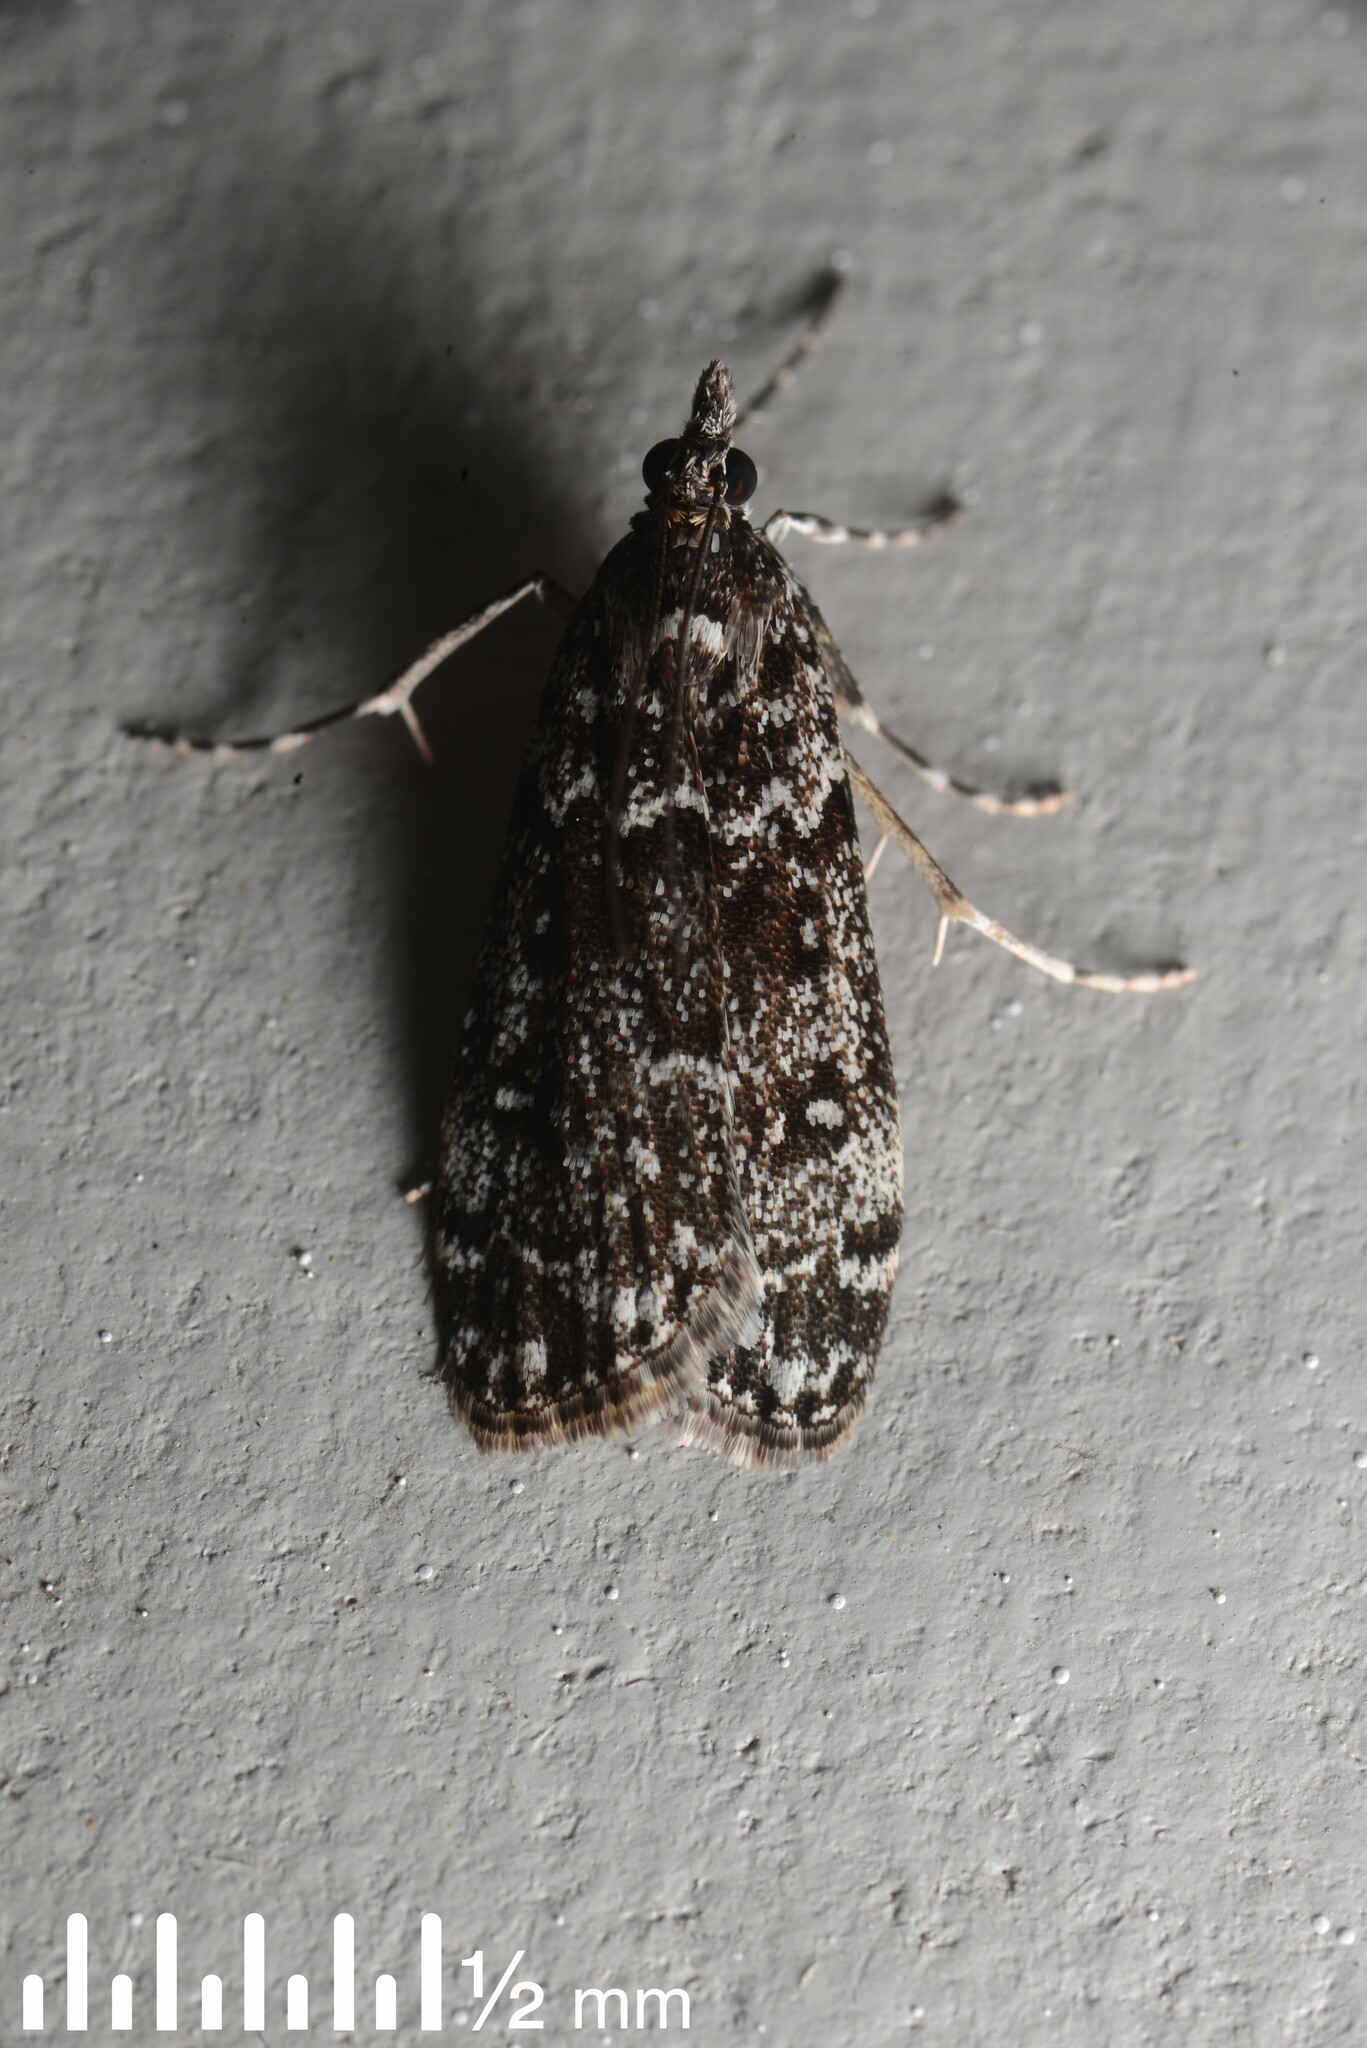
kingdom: Animalia
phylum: Arthropoda
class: Insecta
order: Lepidoptera
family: Crambidae
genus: Eudonia
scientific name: Eudonia philerga
